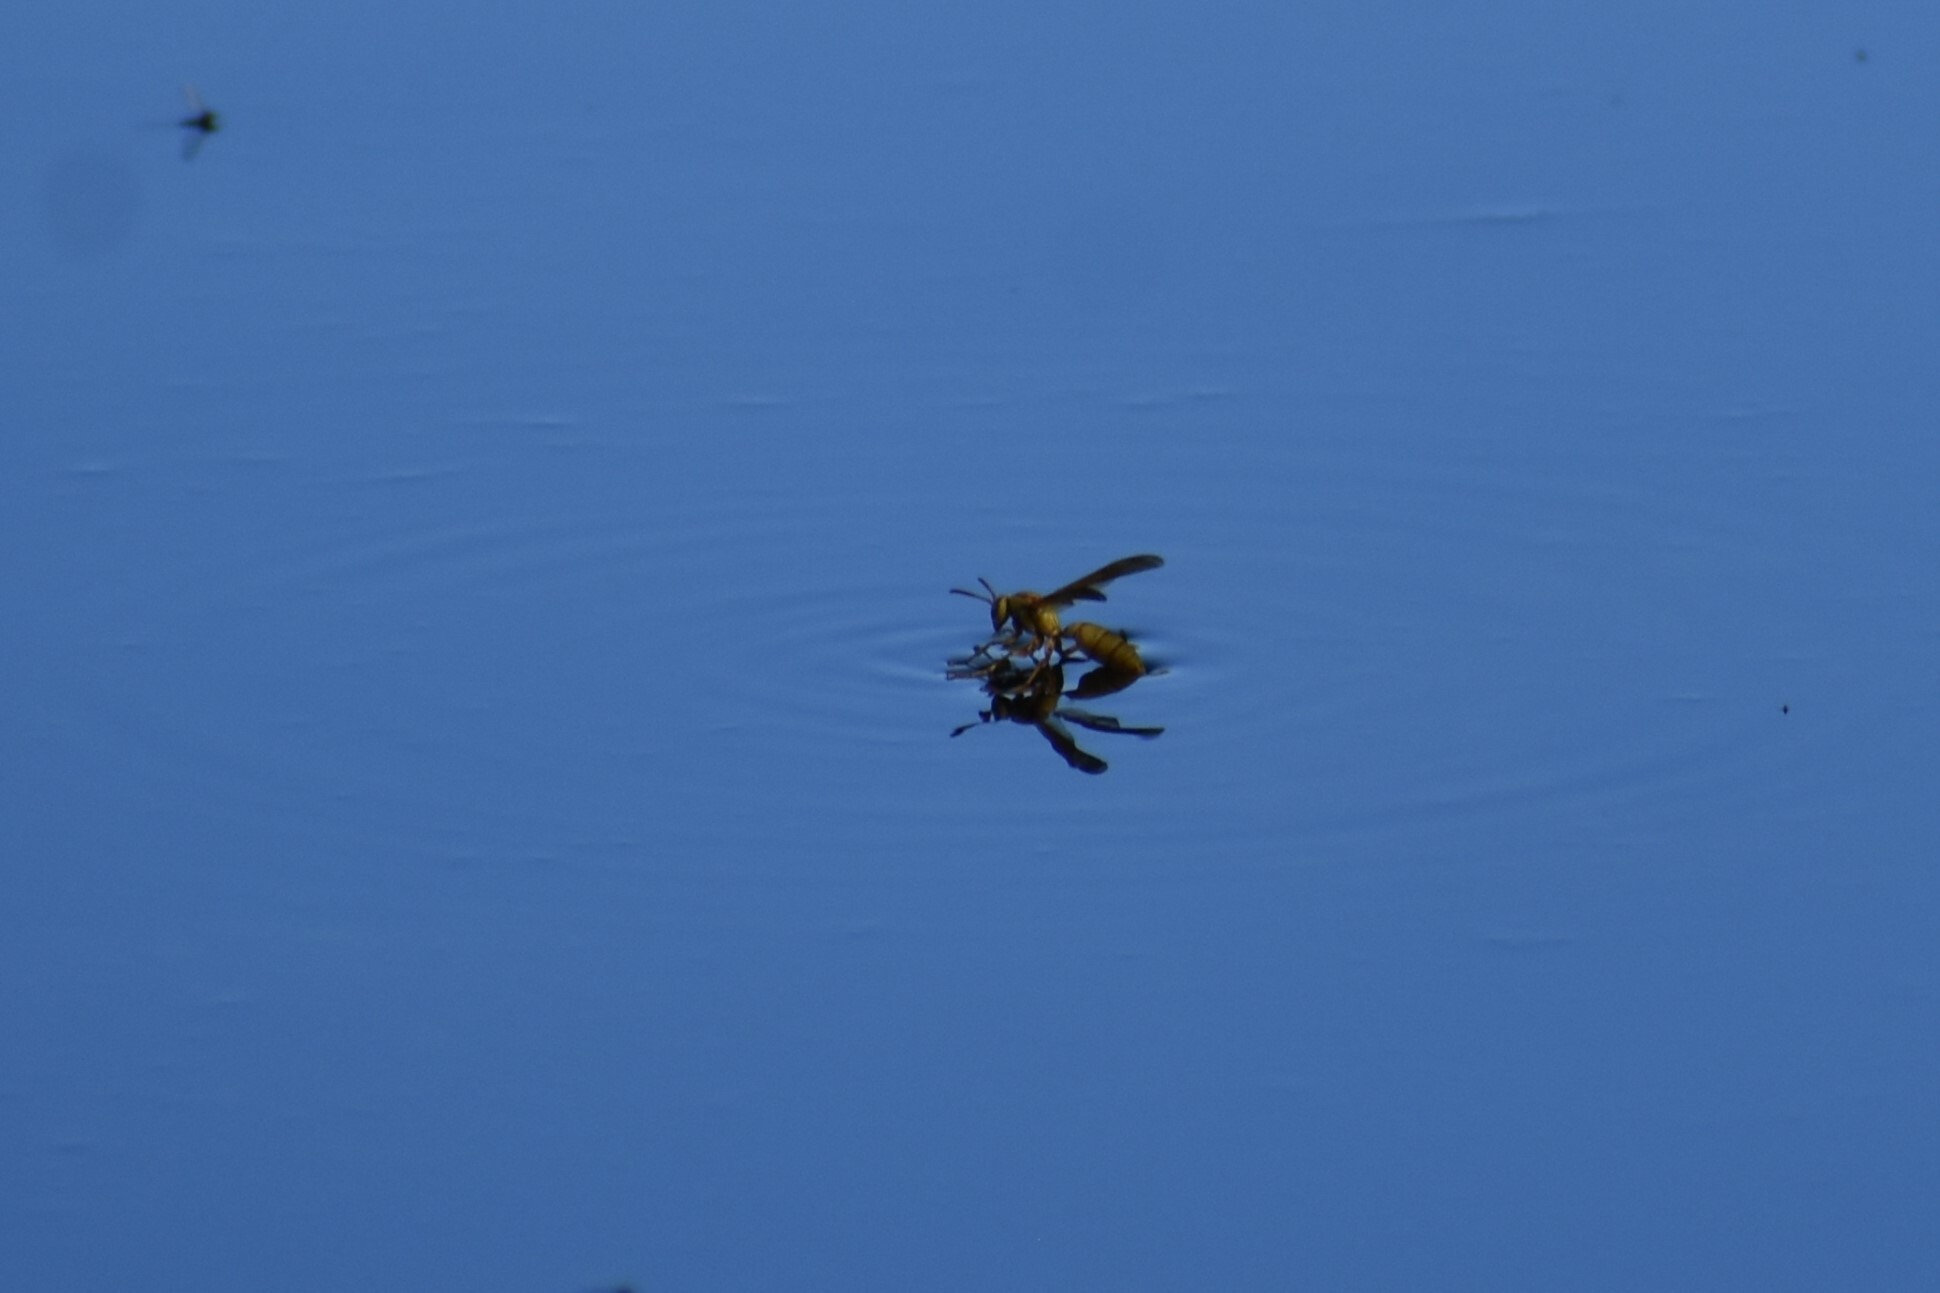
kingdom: Animalia
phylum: Arthropoda
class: Insecta
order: Hymenoptera
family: Eumenidae
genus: Polistes
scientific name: Polistes flavus
